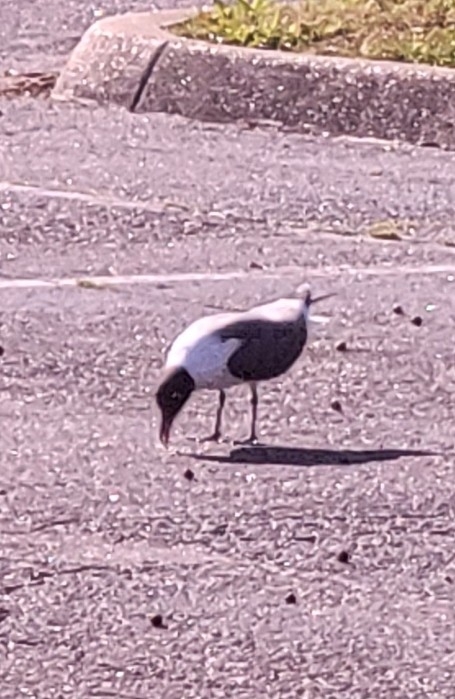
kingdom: Animalia
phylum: Chordata
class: Aves
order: Charadriiformes
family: Laridae
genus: Leucophaeus
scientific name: Leucophaeus atricilla
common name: Laughing gull
